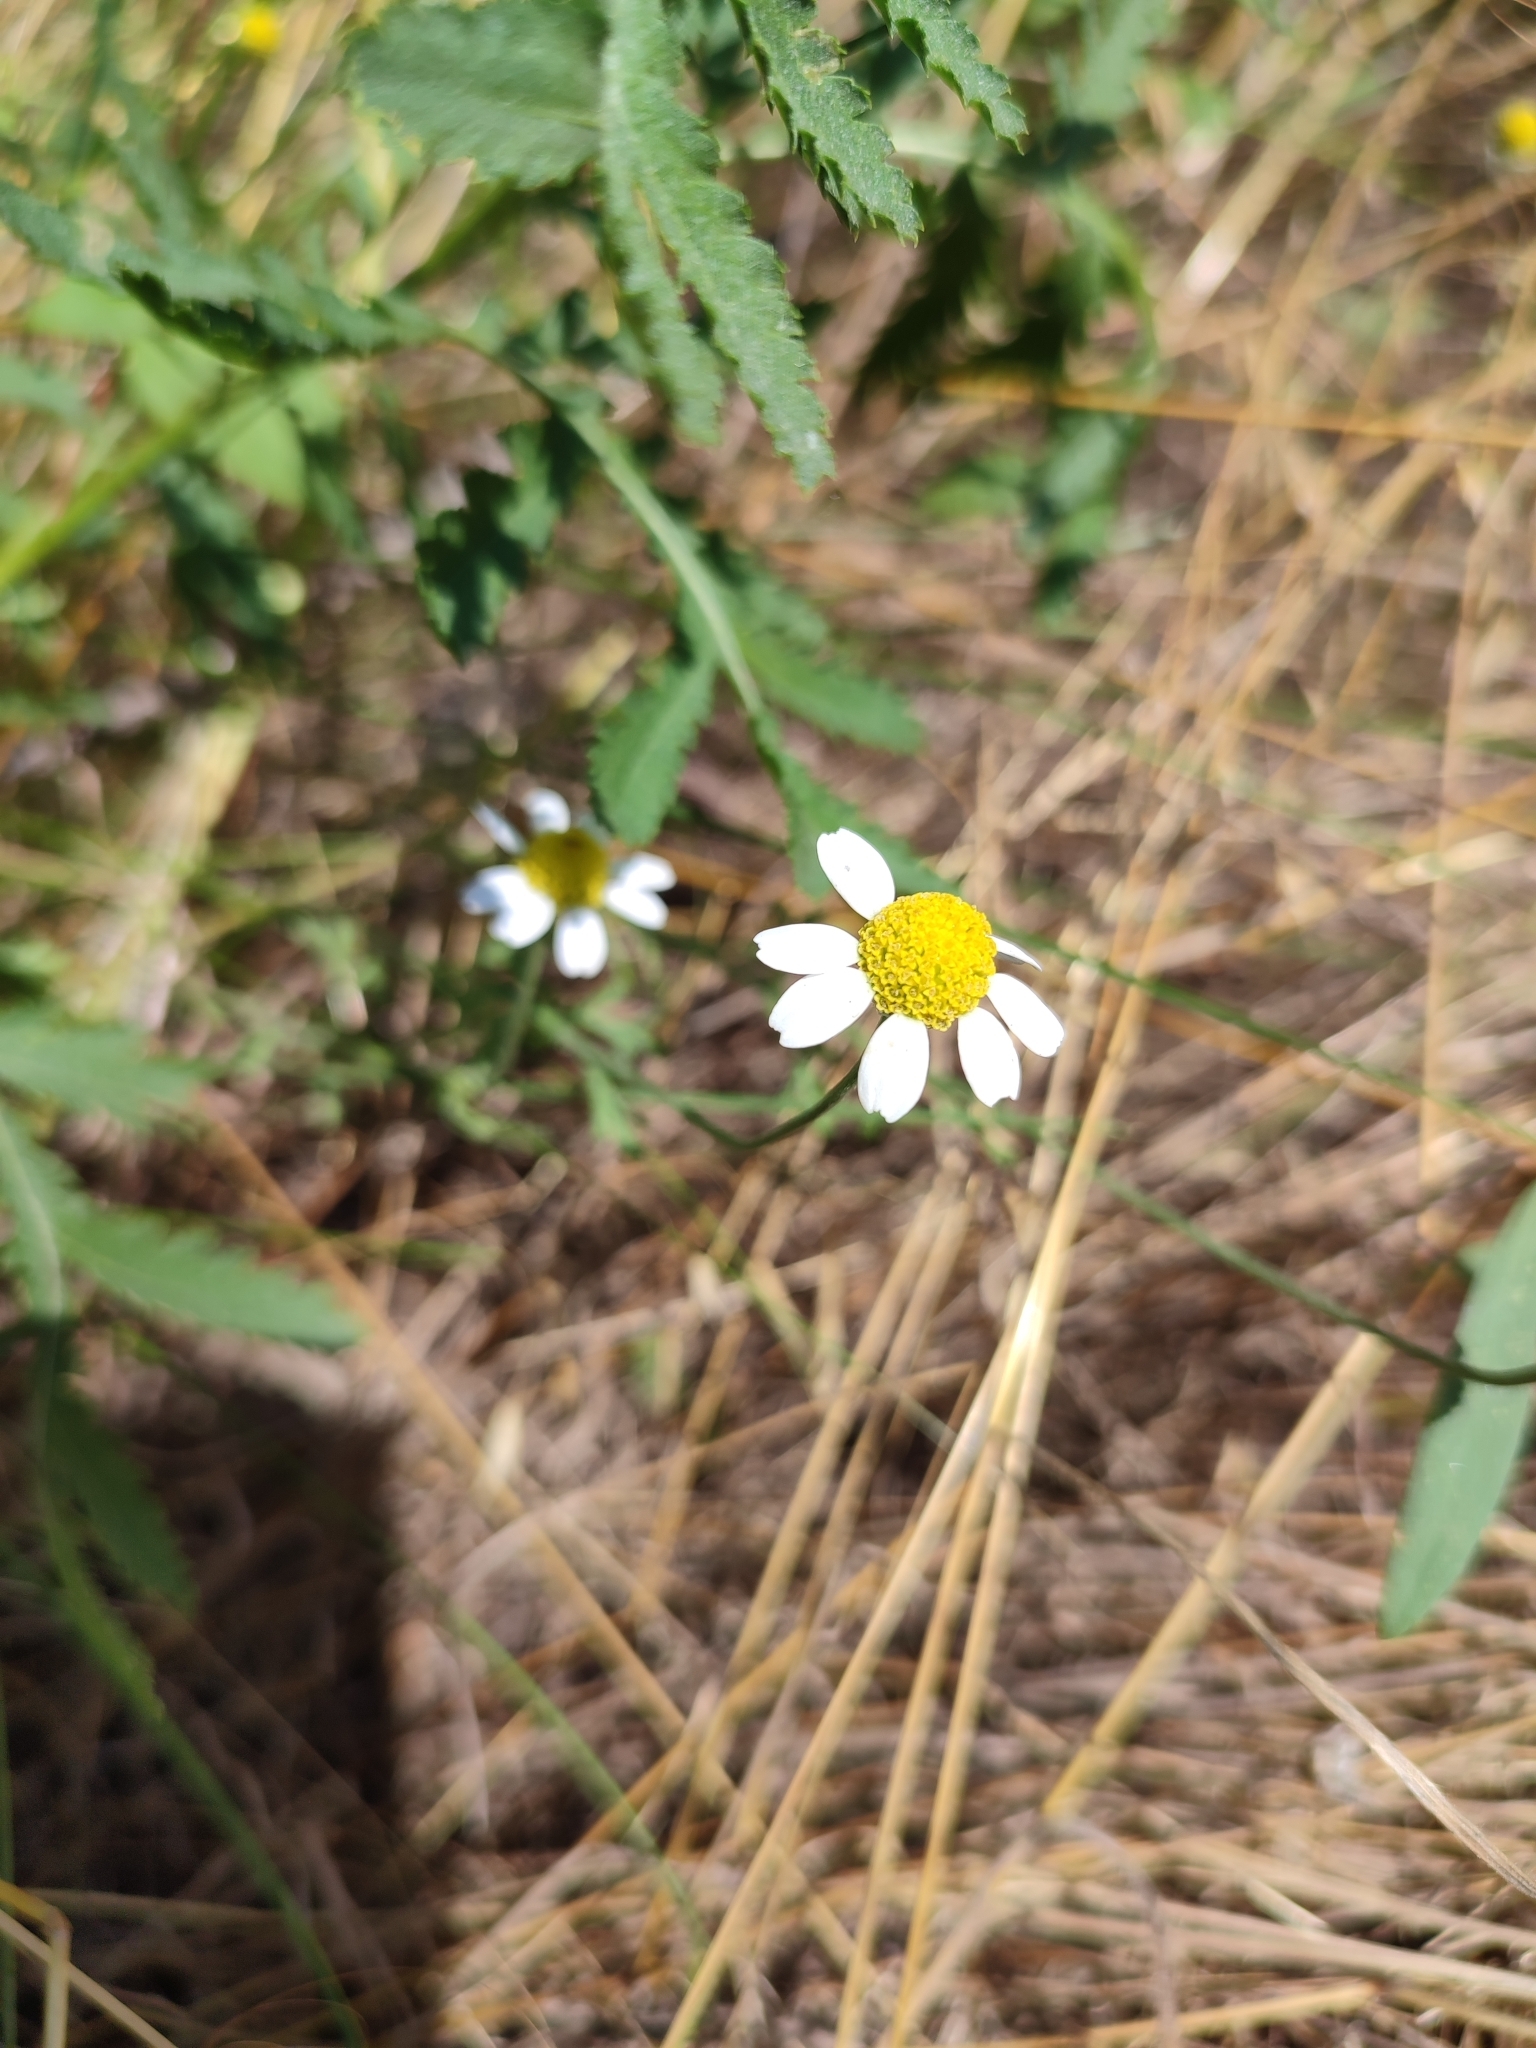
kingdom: Plantae
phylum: Tracheophyta
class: Magnoliopsida
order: Asterales
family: Asteraceae
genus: Anthemis
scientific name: Anthemis ruthenica
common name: Eastern chamomile
